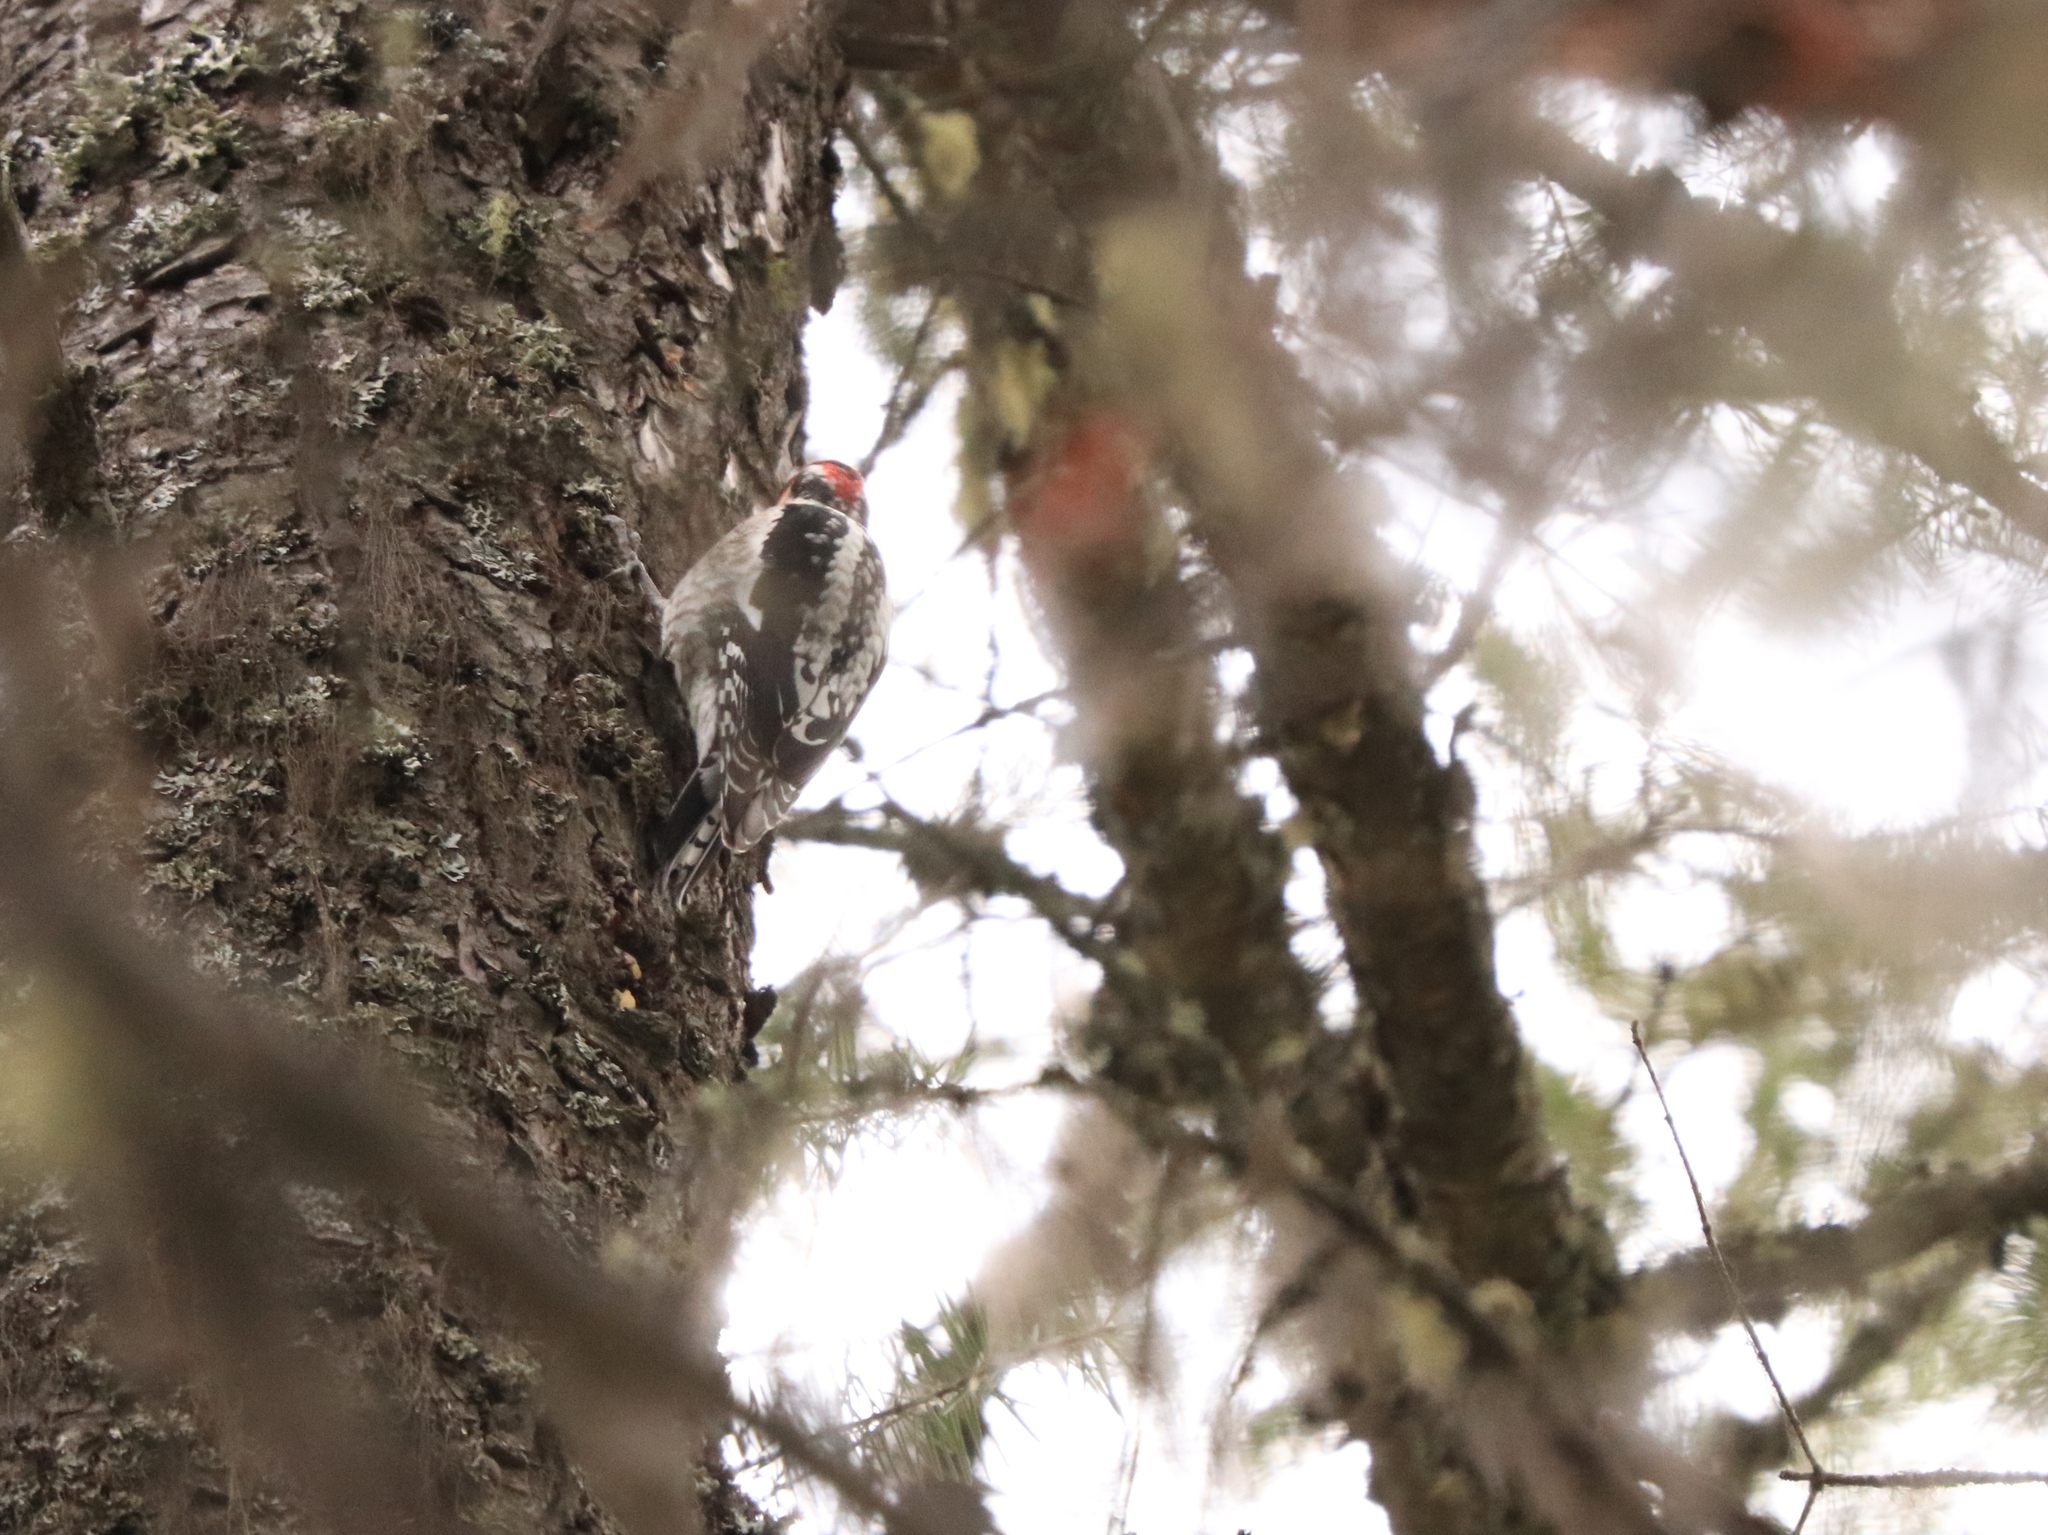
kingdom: Animalia
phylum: Chordata
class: Aves
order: Piciformes
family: Picidae
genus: Sphyrapicus
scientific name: Sphyrapicus nuchalis
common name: Red-naped sapsucker
